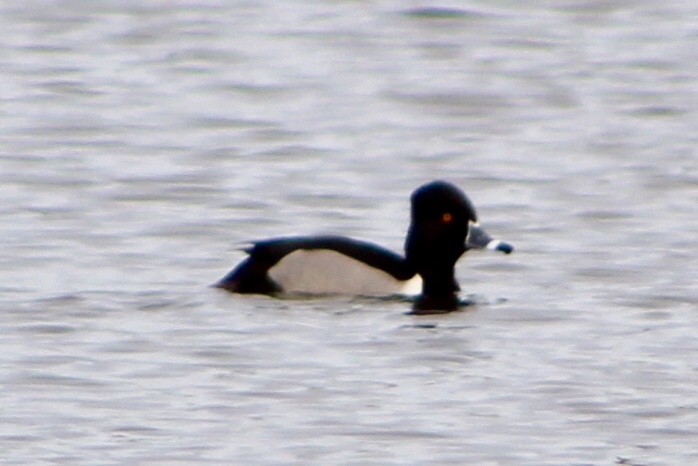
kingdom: Animalia
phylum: Chordata
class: Aves
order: Anseriformes
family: Anatidae
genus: Aythya
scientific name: Aythya collaris
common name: Ring-necked duck
